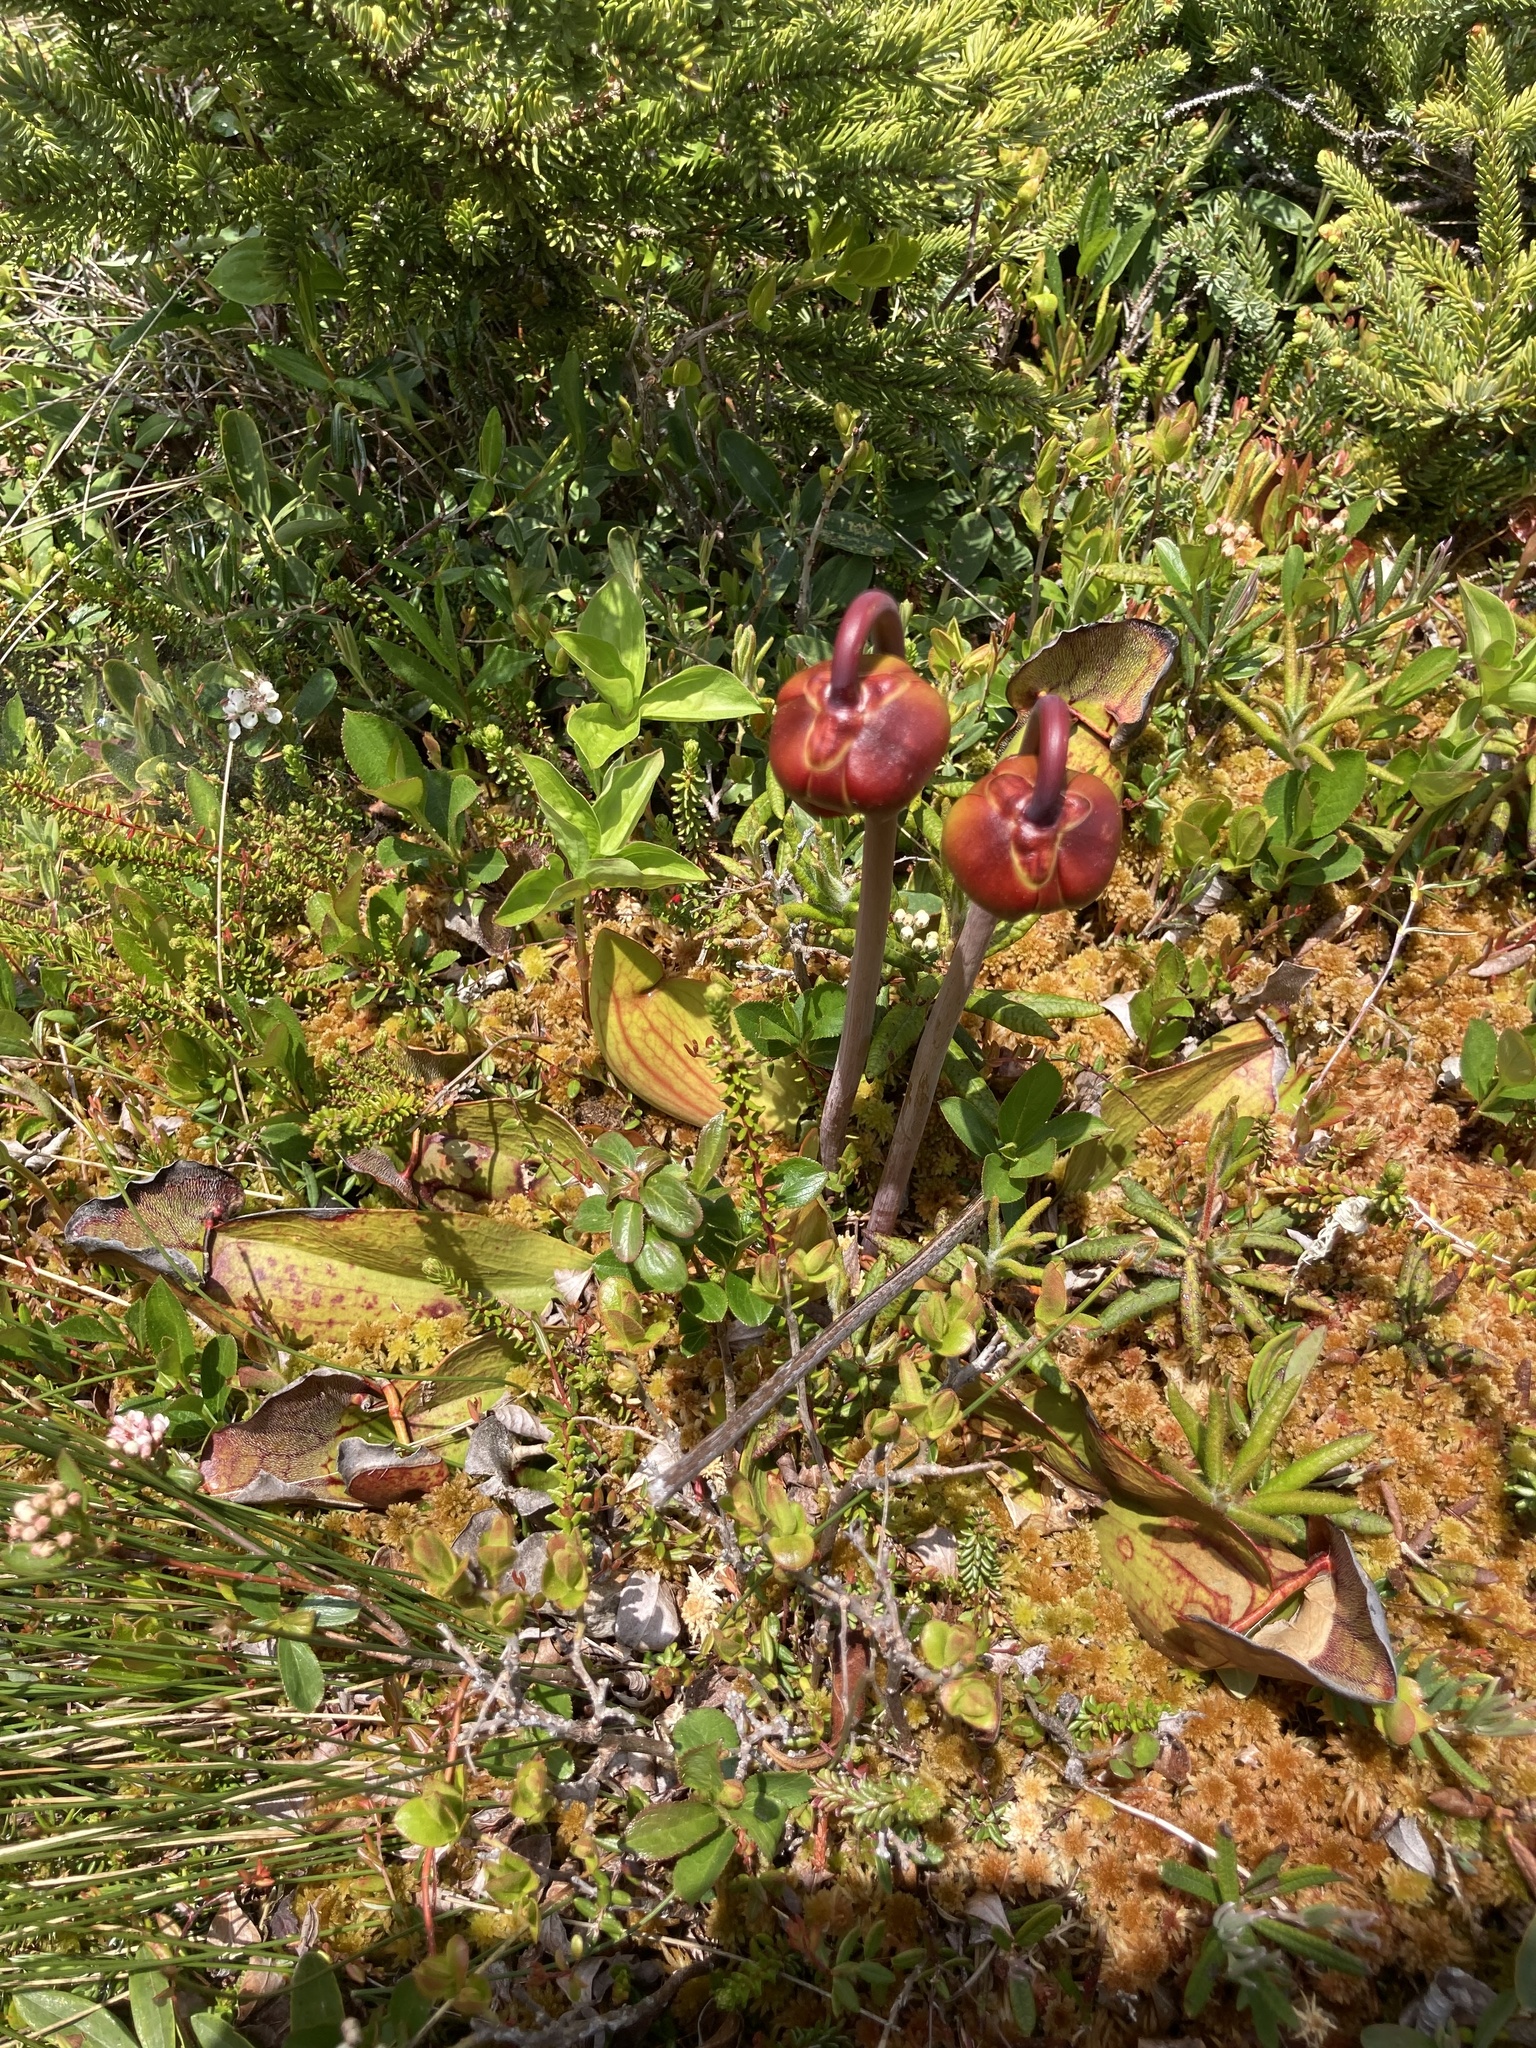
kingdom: Plantae
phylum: Tracheophyta
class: Magnoliopsida
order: Ericales
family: Sarraceniaceae
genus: Sarracenia
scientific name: Sarracenia purpurea
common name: Pitcherplant
